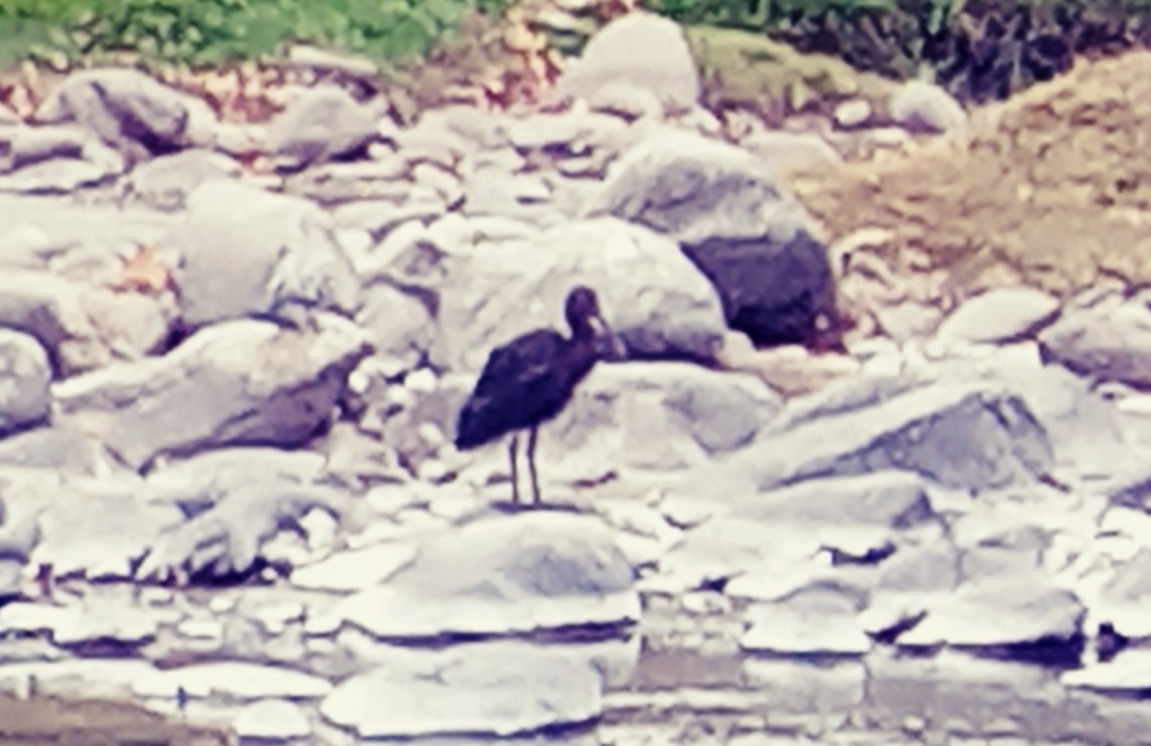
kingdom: Animalia
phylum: Chordata
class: Aves
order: Pelecaniformes
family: Threskiornithidae
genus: Plegadis
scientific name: Plegadis chihi
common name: White-faced ibis
